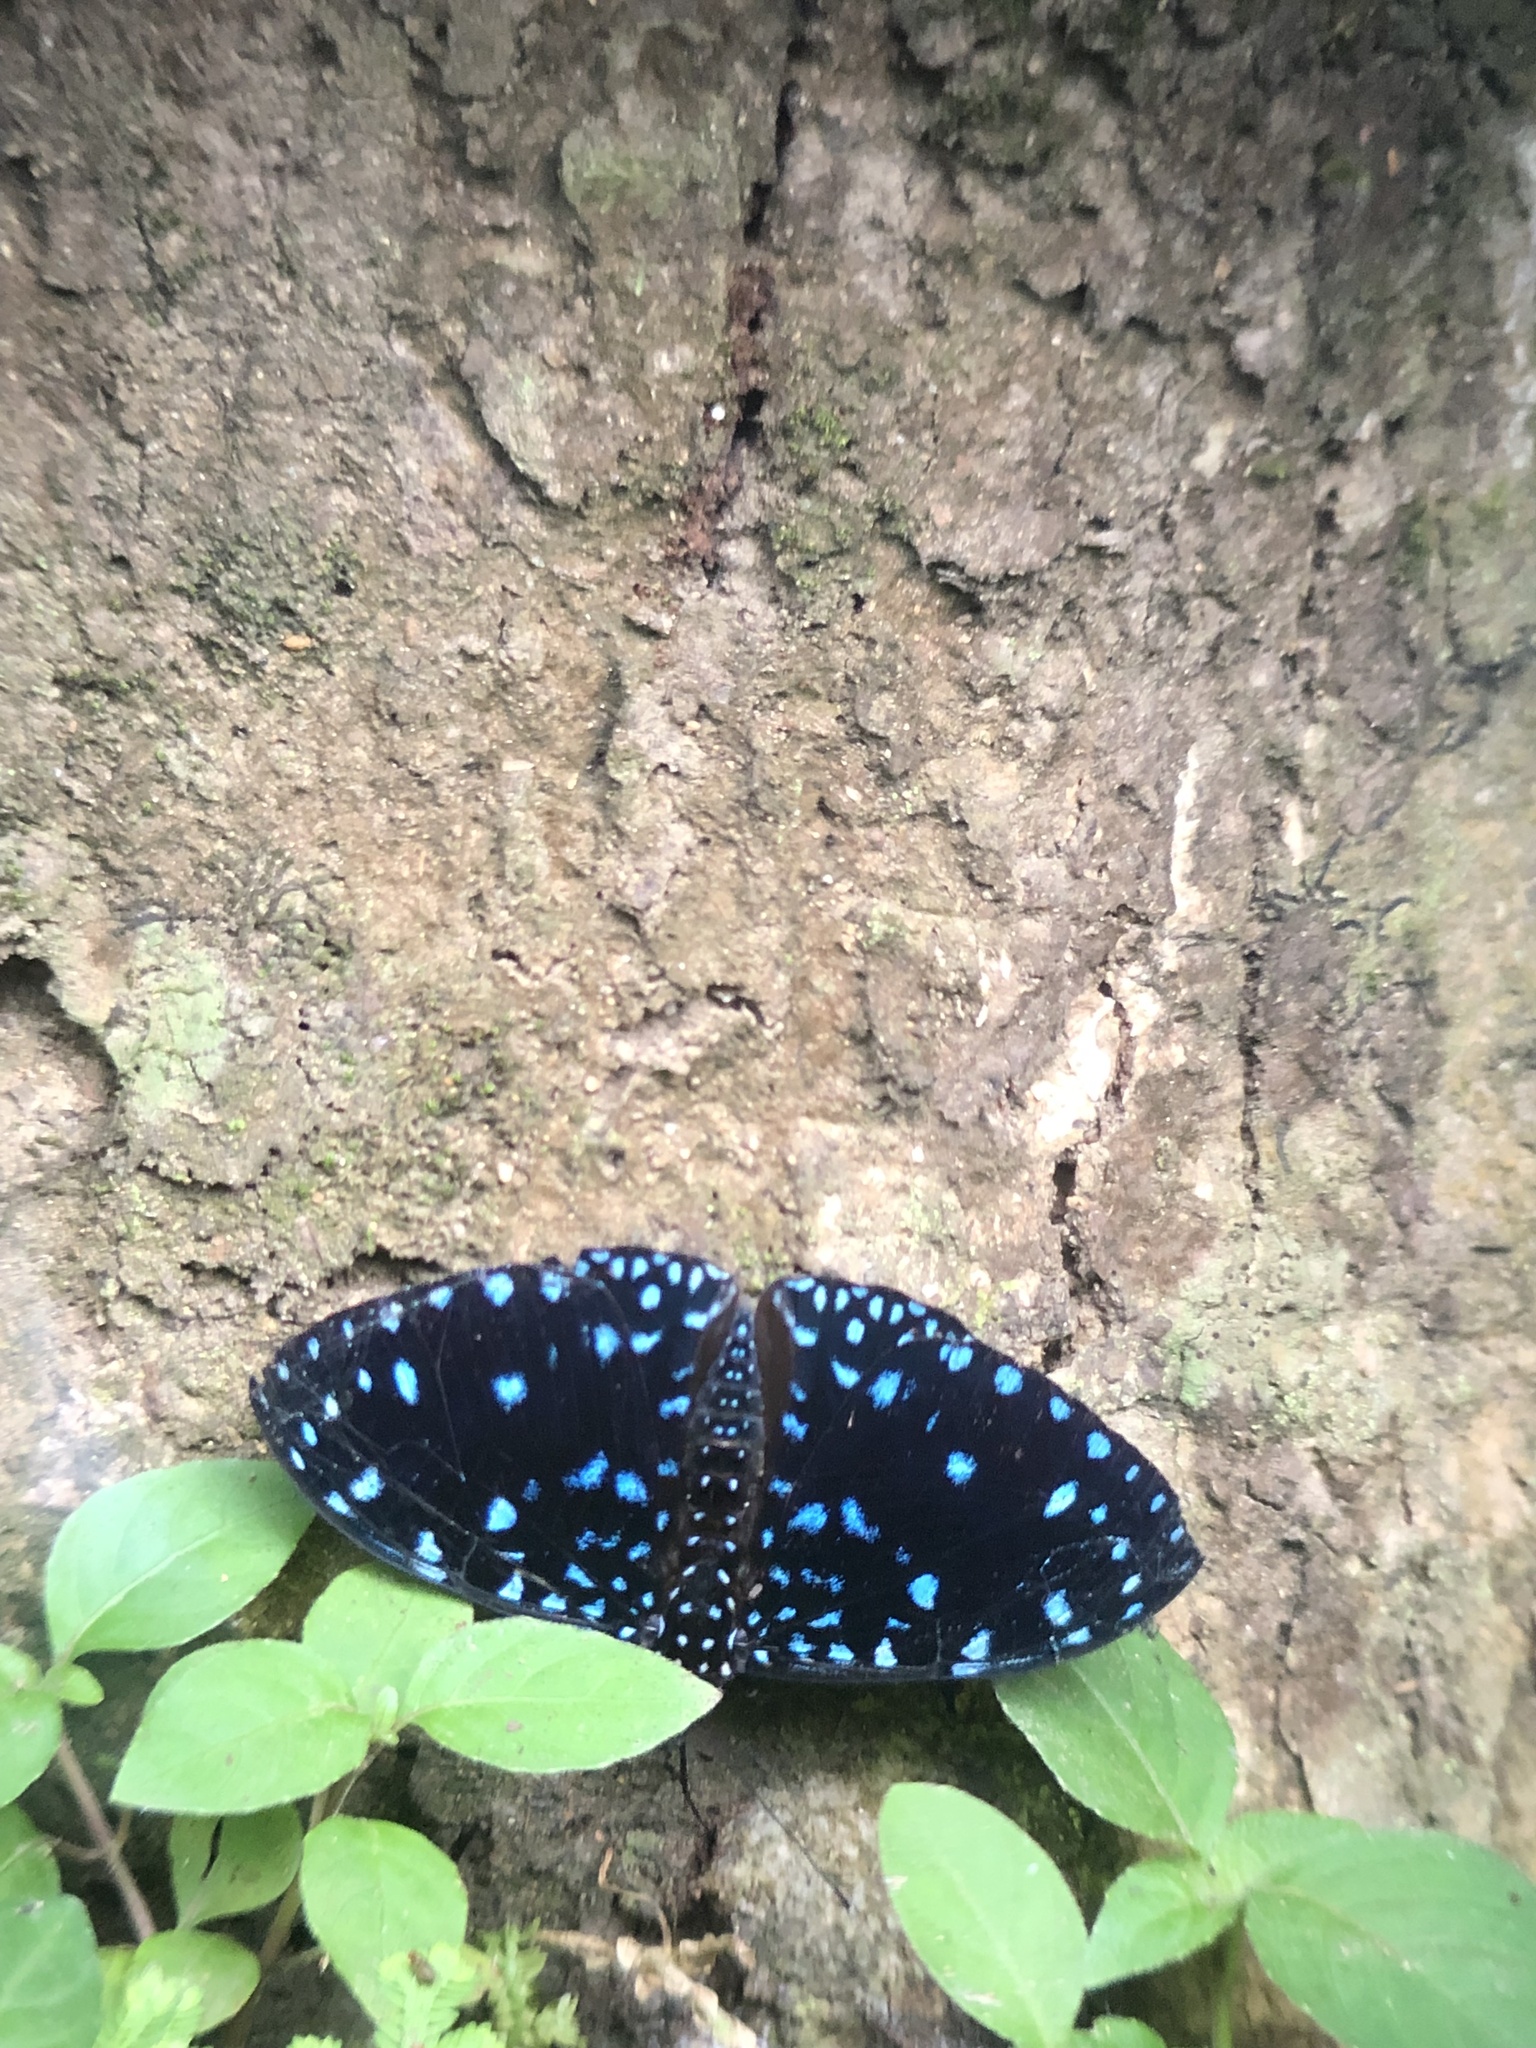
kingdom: Animalia
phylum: Arthropoda
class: Insecta
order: Lepidoptera
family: Nymphalidae
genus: Hamadryas
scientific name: Hamadryas laodamia
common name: Starry night cracker
